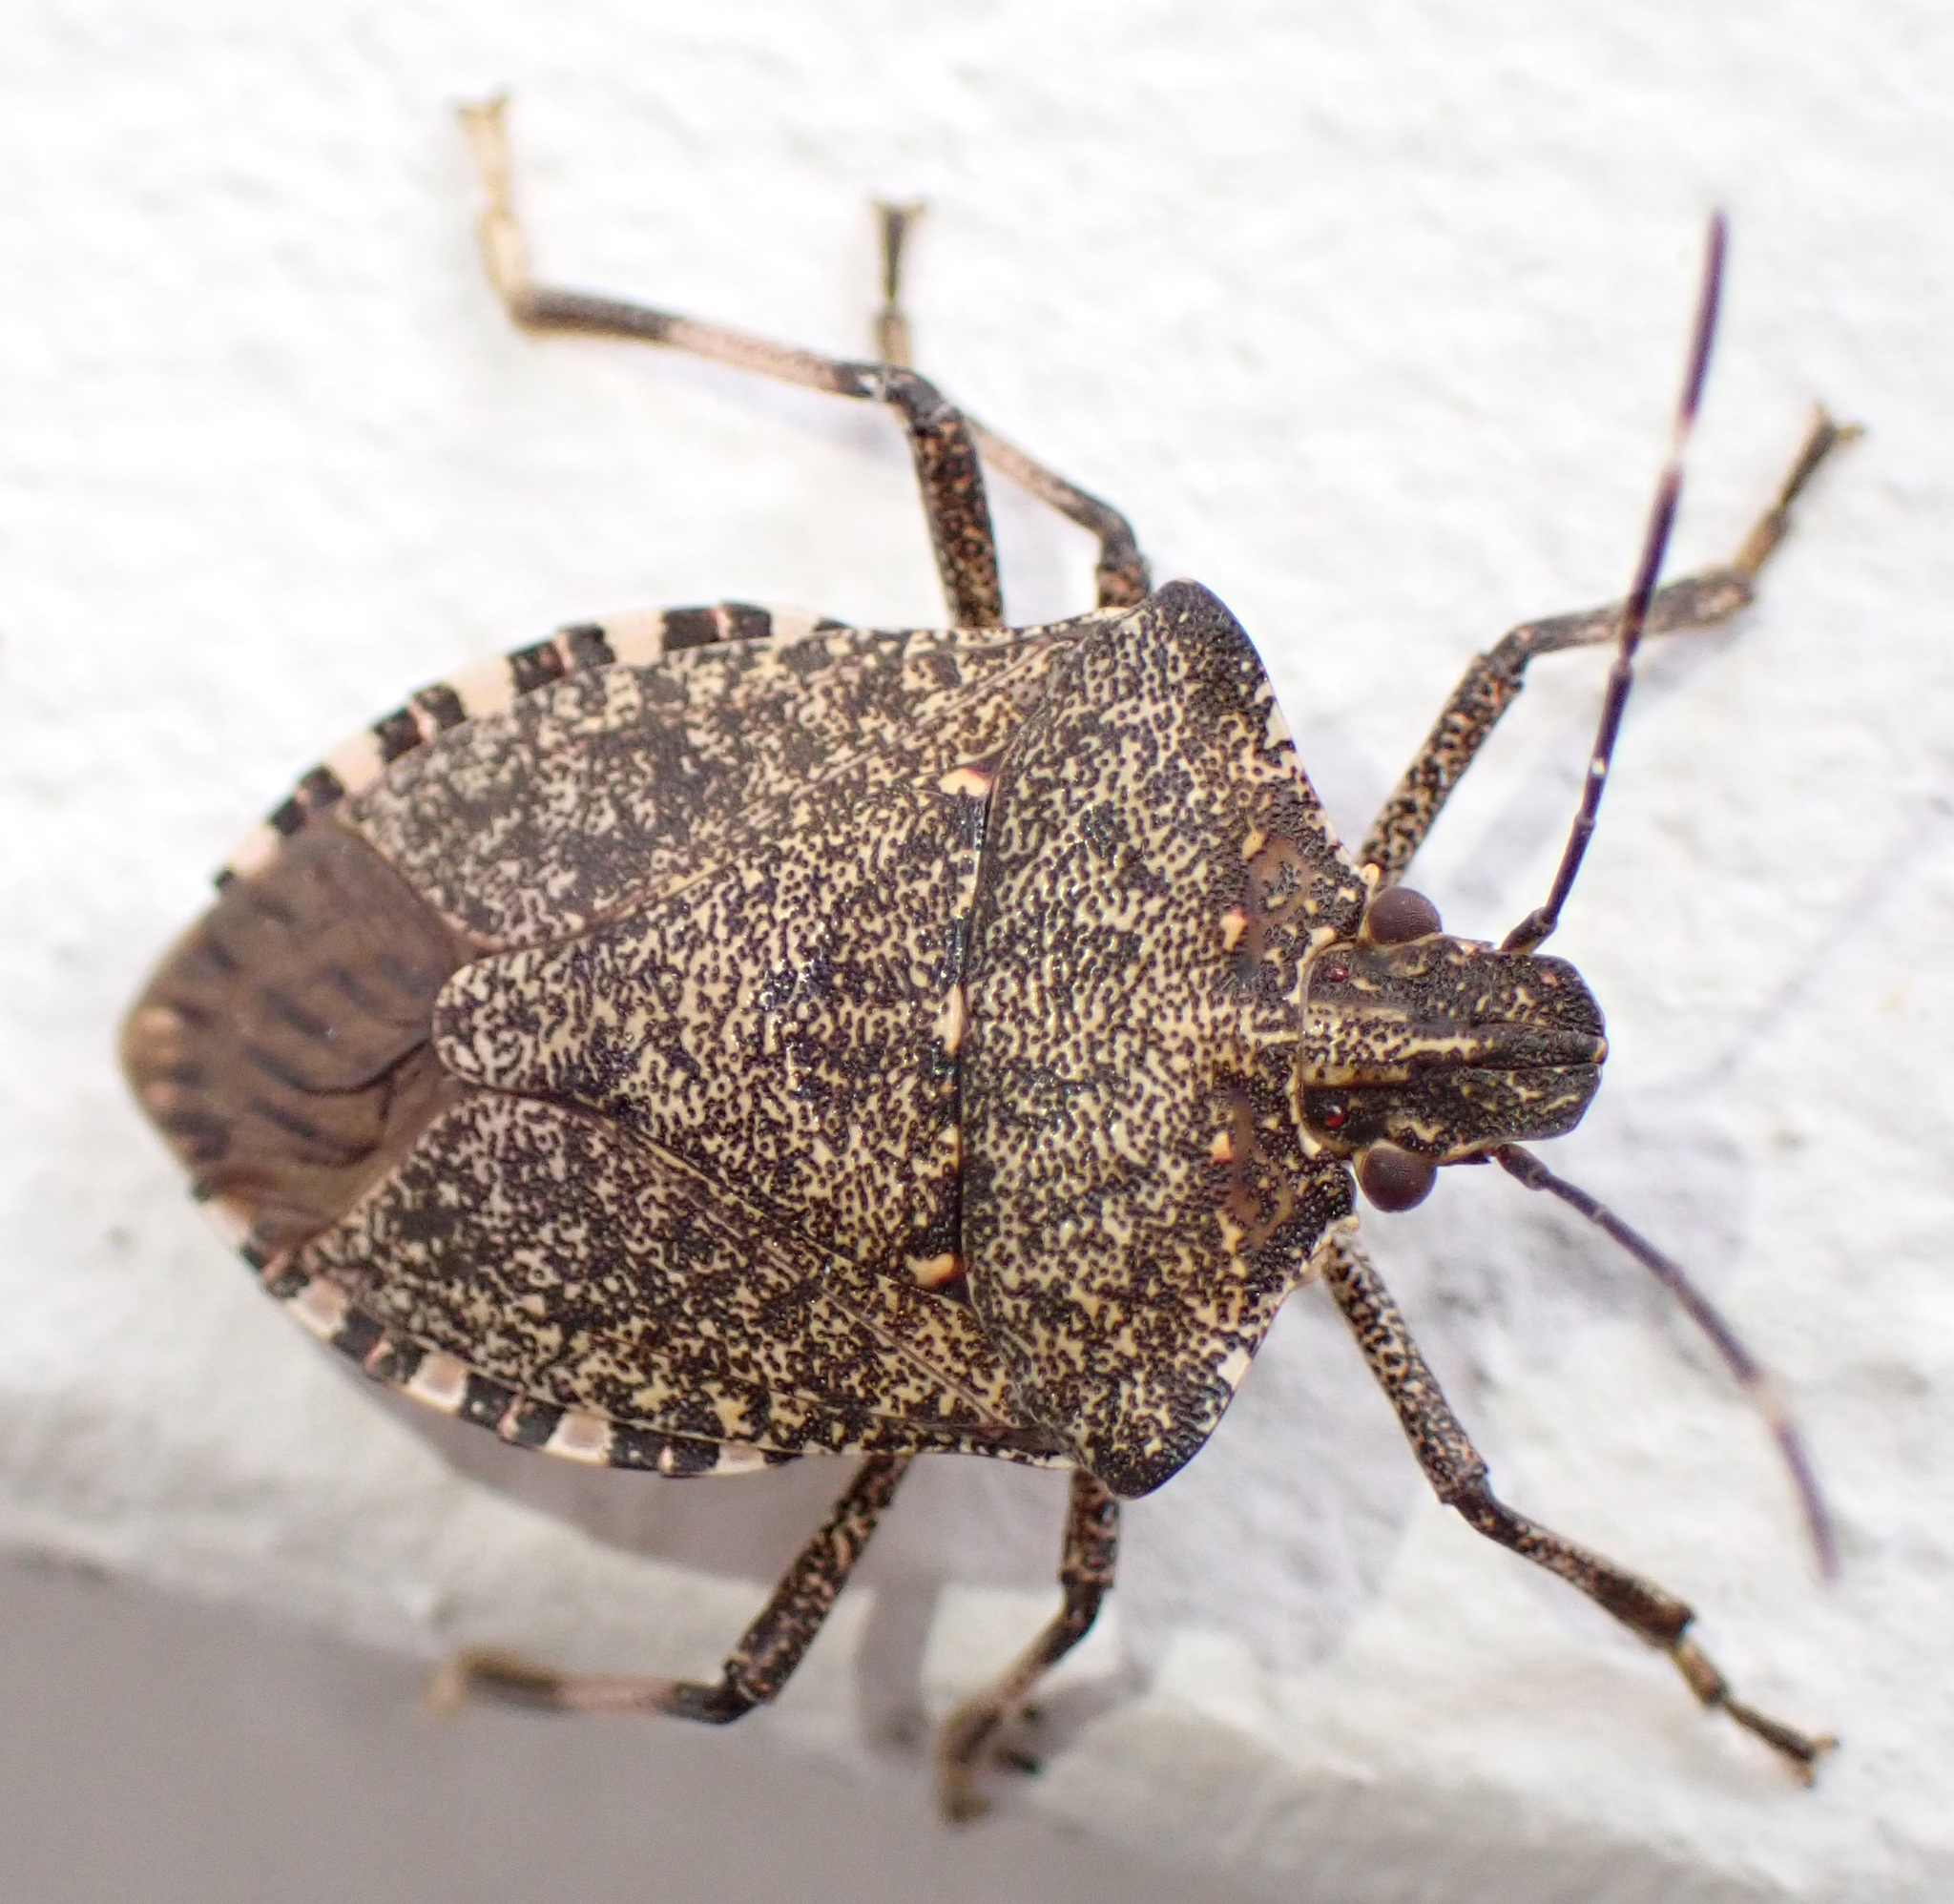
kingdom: Animalia
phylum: Arthropoda
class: Insecta
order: Hemiptera
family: Pentatomidae
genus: Halyomorpha
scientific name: Halyomorpha halys
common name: Brown marmorated stink bug
